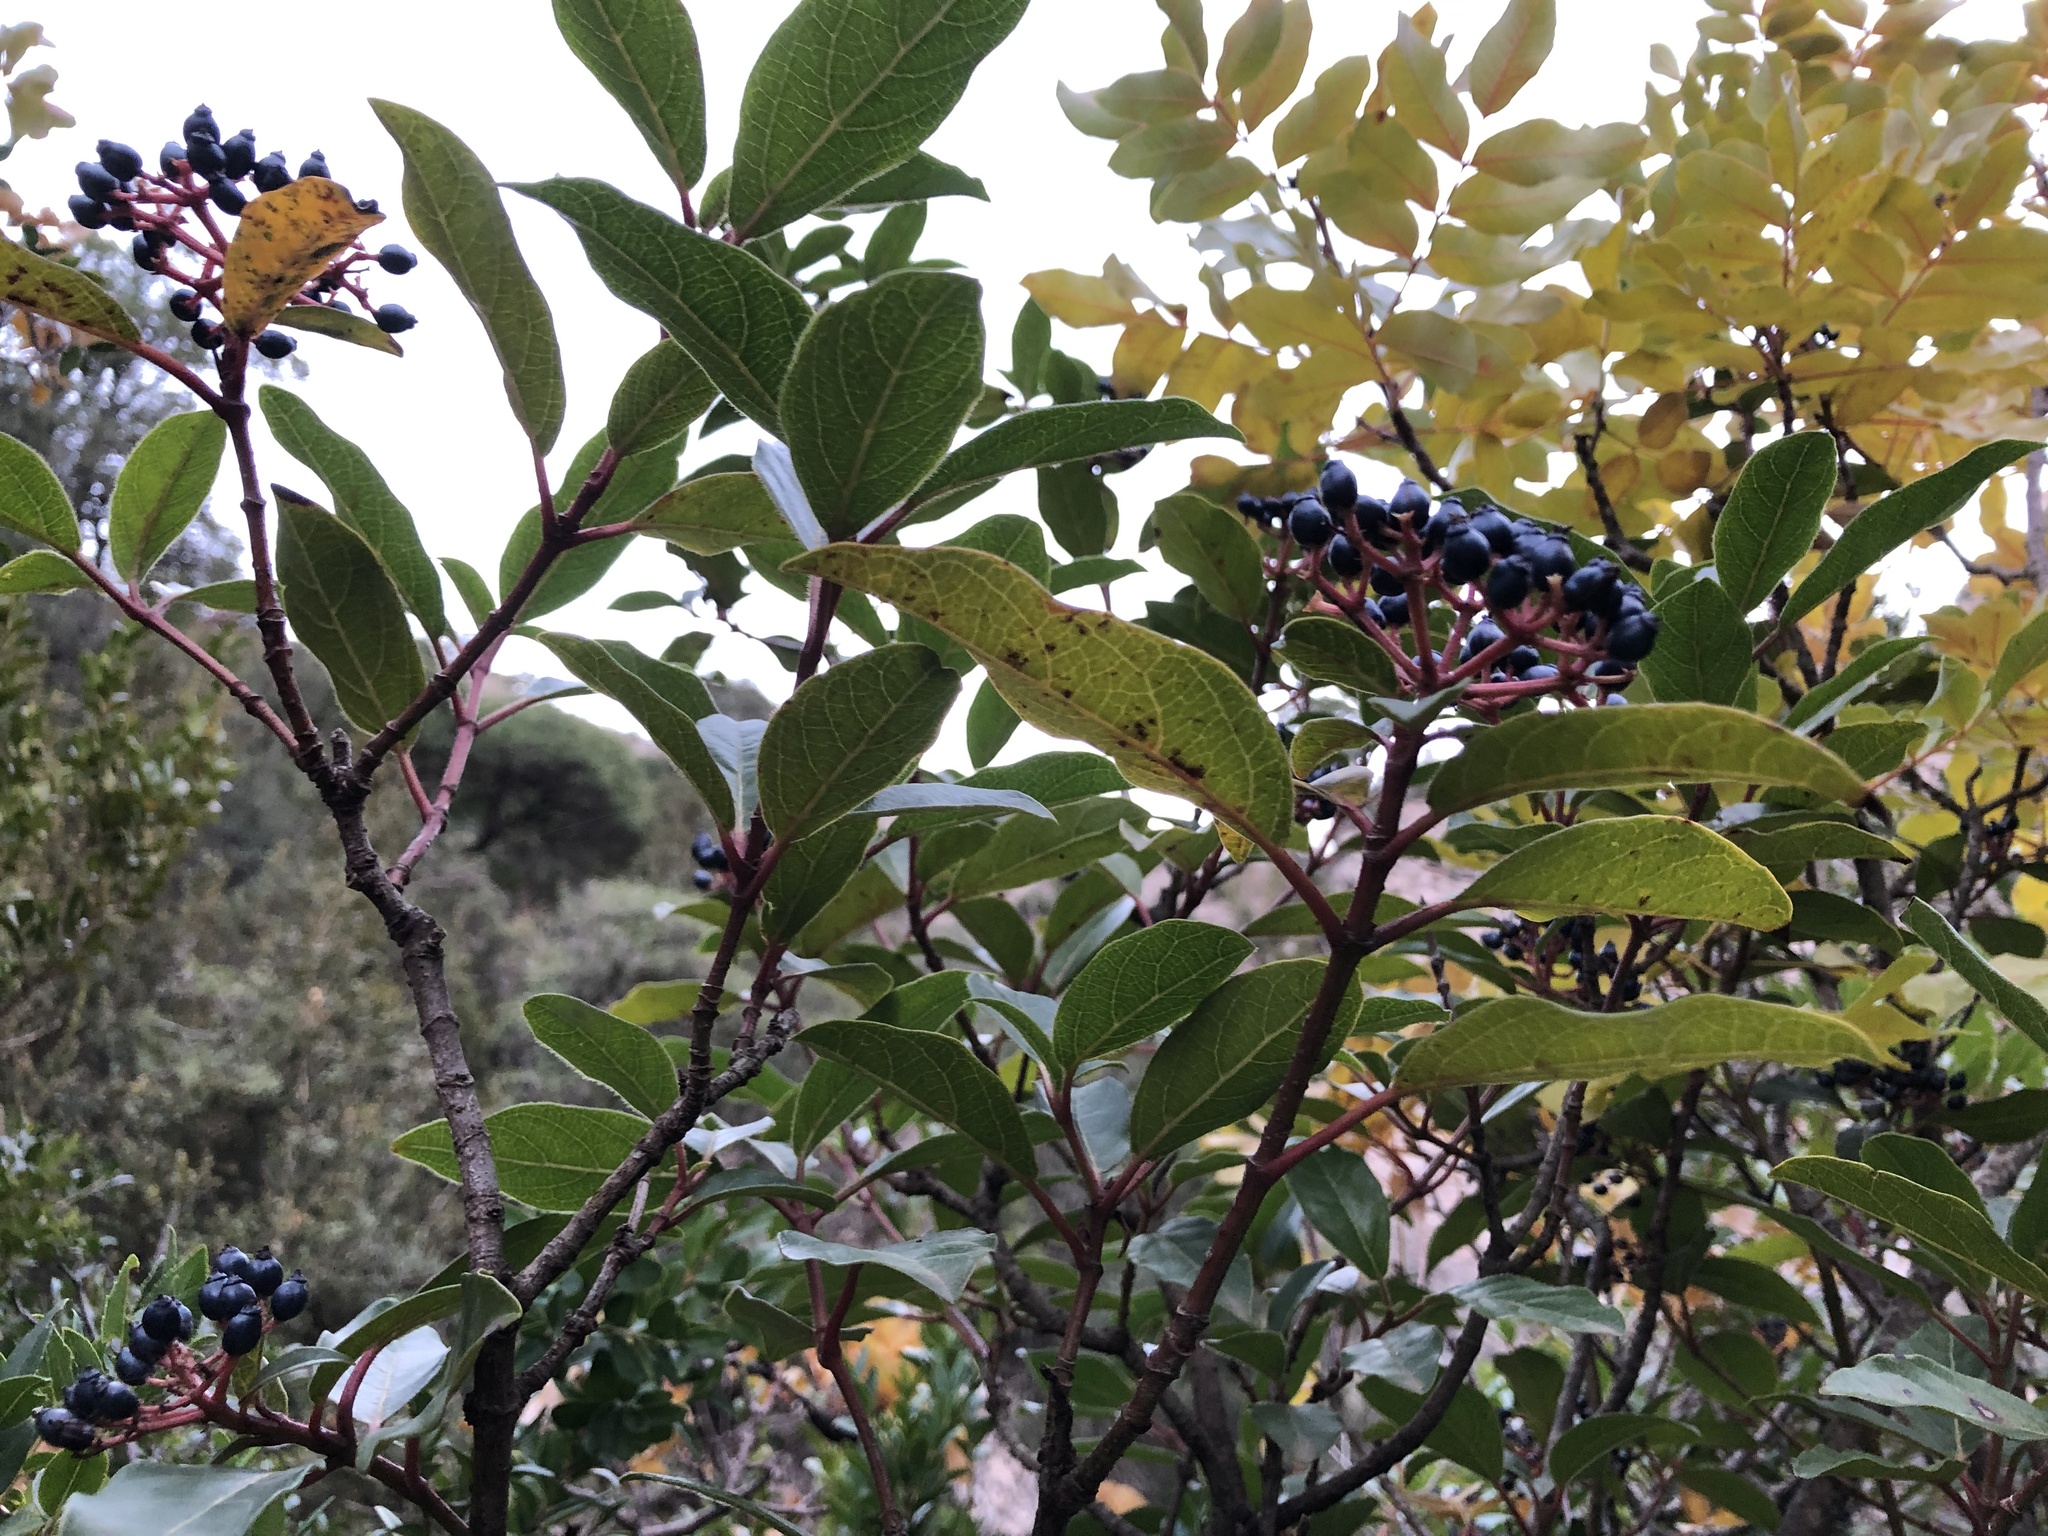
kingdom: Plantae
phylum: Tracheophyta
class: Magnoliopsida
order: Dipsacales
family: Viburnaceae
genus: Viburnum
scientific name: Viburnum tinus
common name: Laurustinus
